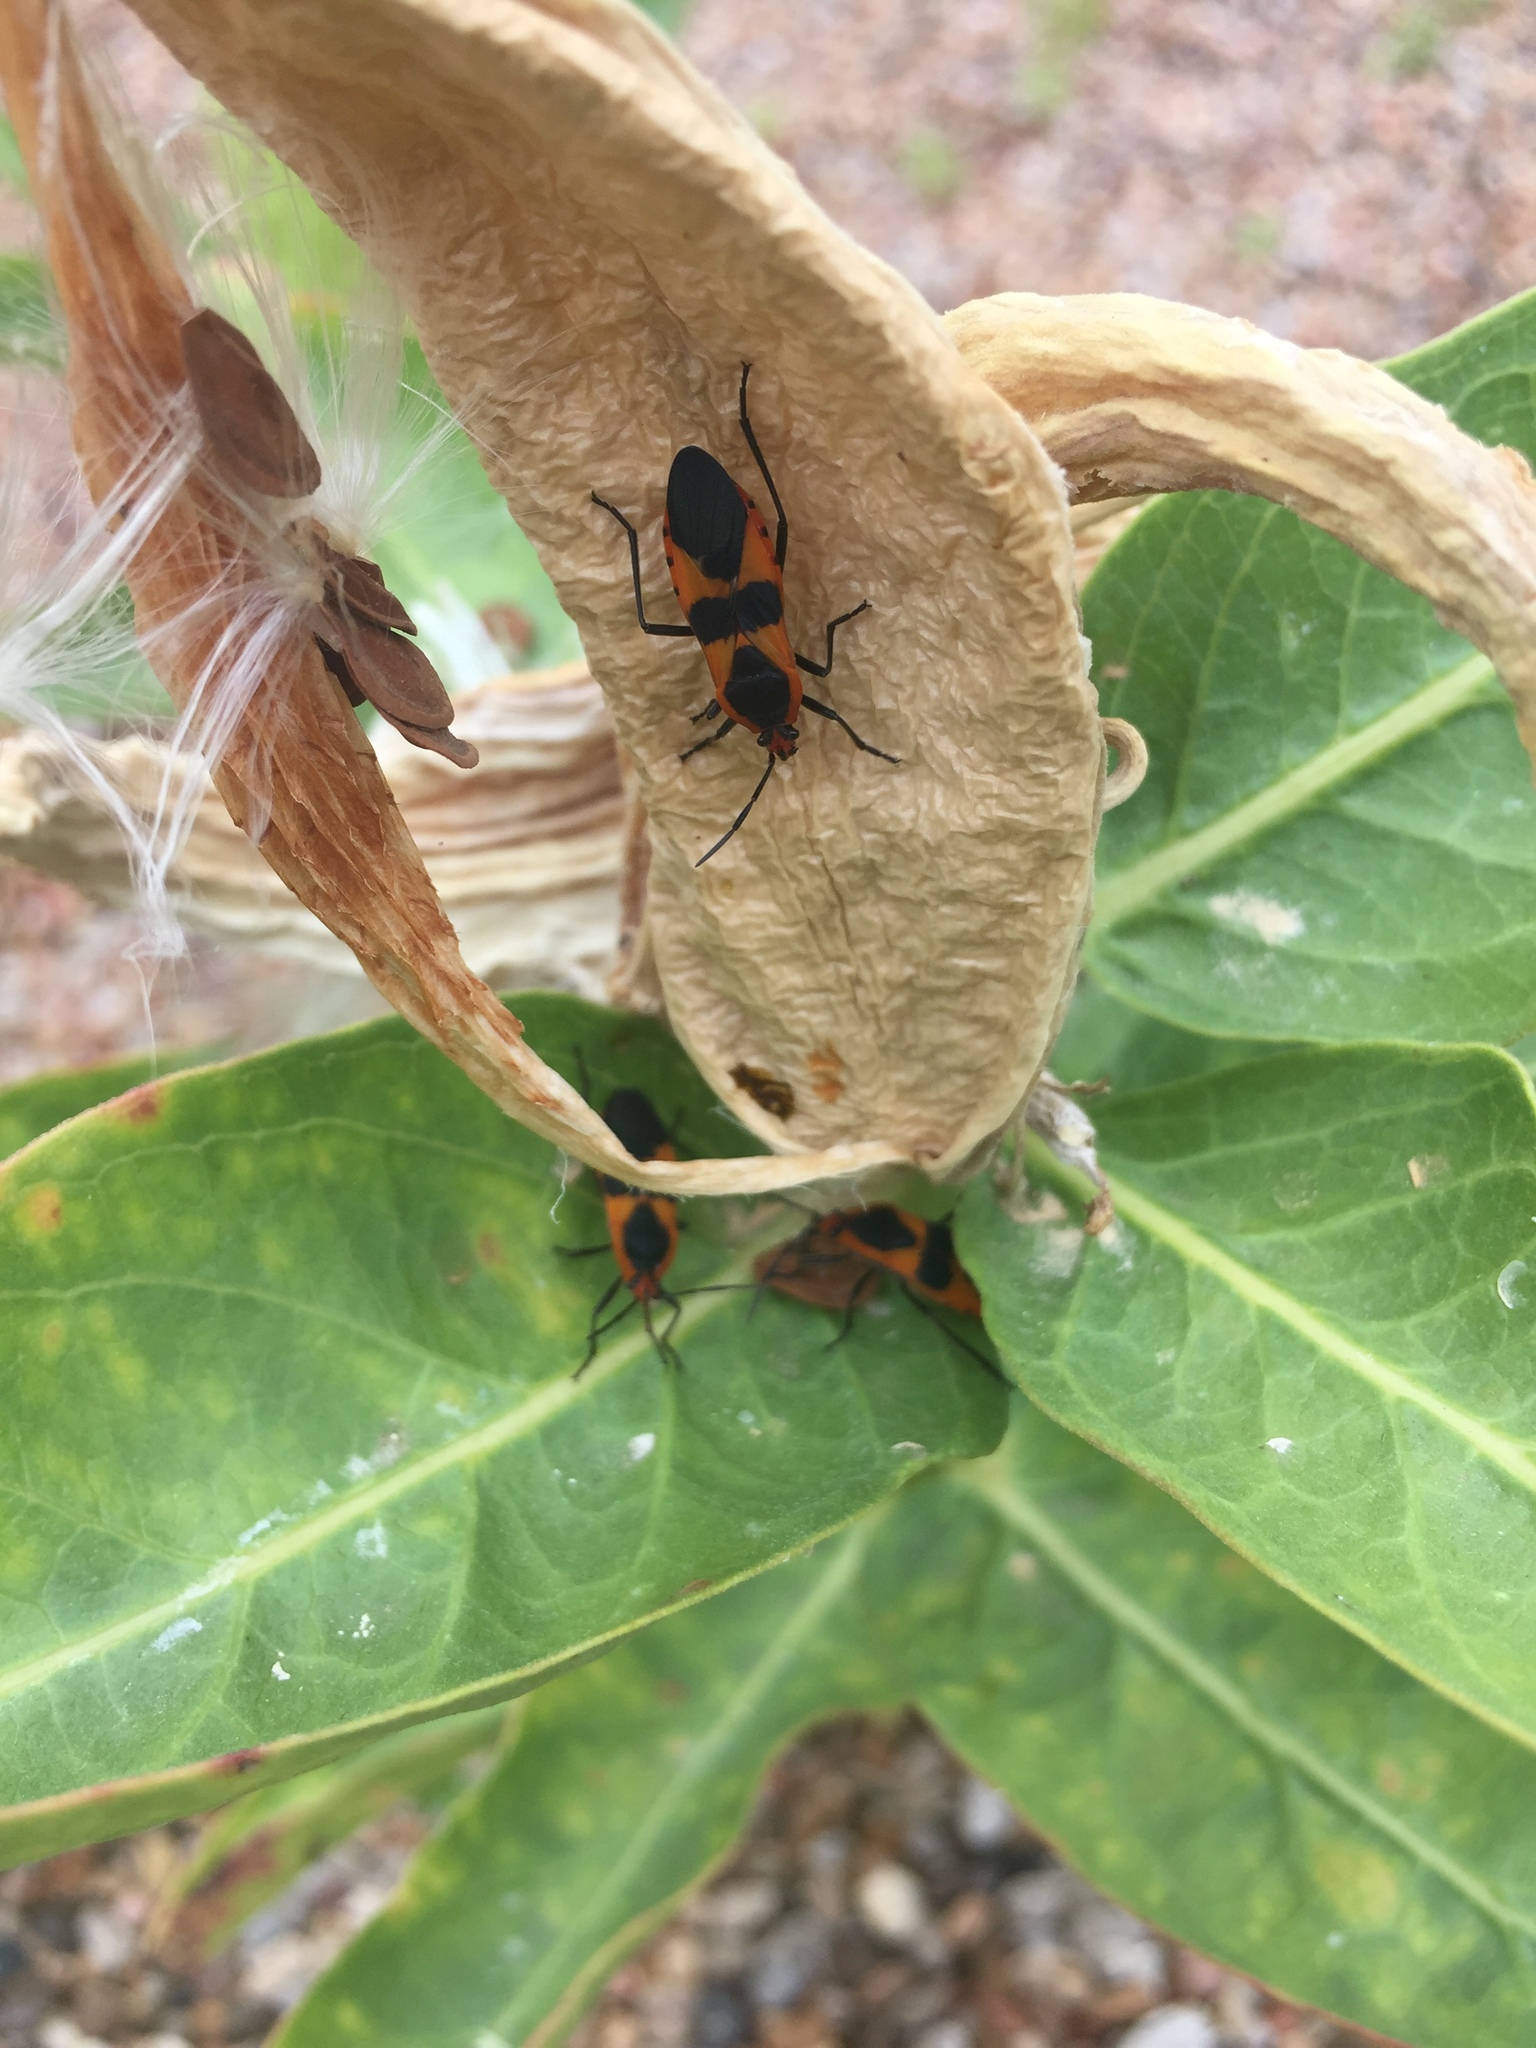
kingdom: Animalia
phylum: Arthropoda
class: Insecta
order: Hemiptera
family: Lygaeidae
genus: Oncopeltus
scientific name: Oncopeltus fasciatus
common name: Large milkweed bug
